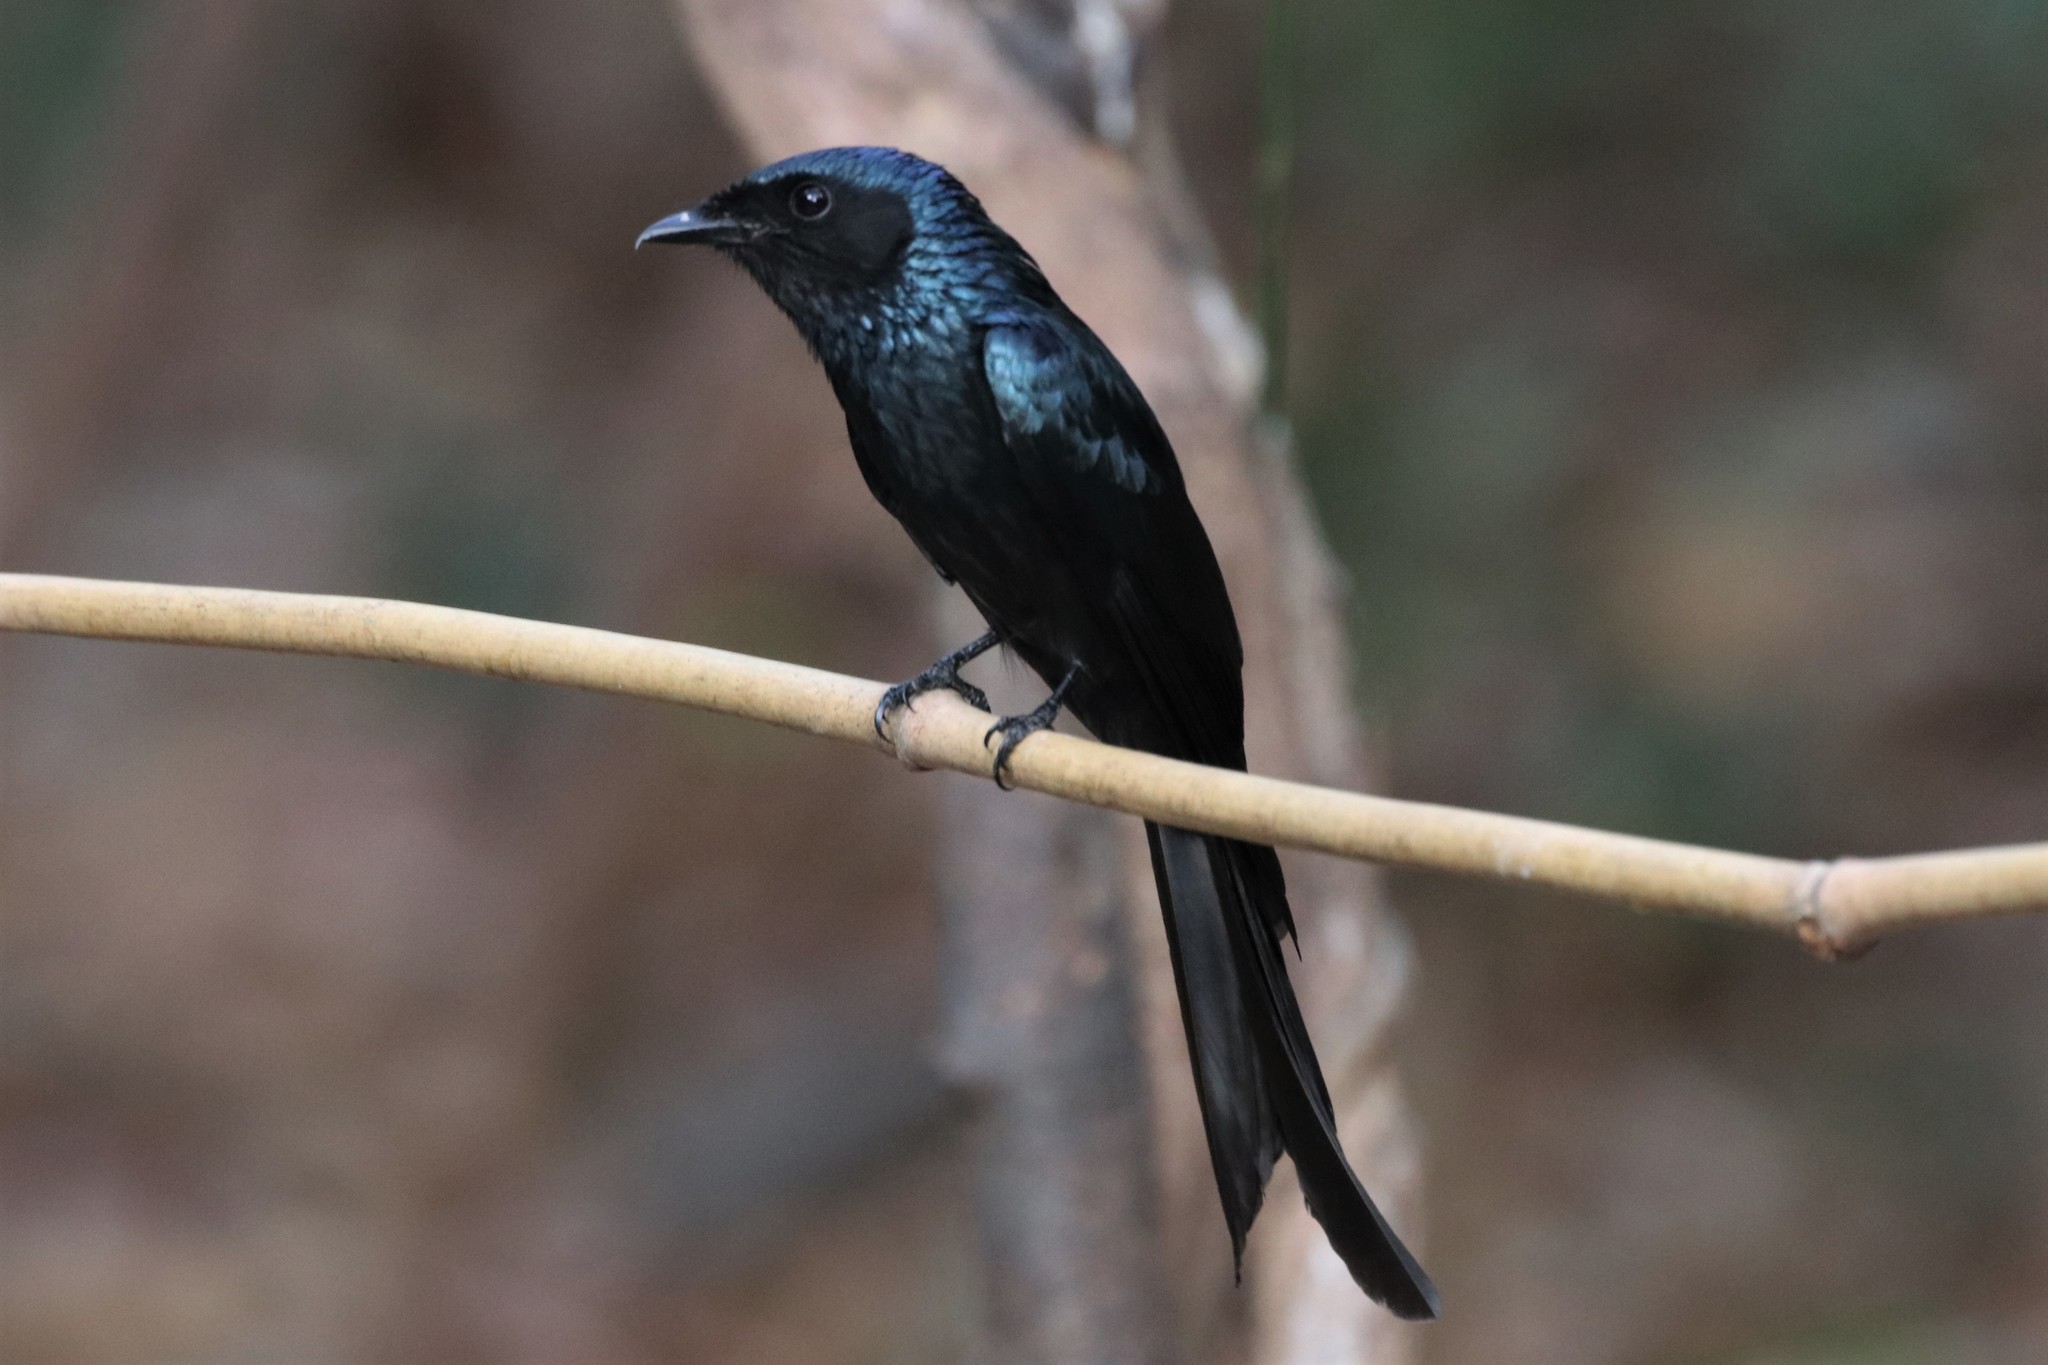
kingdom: Animalia
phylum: Chordata
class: Aves
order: Passeriformes
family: Dicruridae
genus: Dicrurus
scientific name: Dicrurus aeneus
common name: Bronzed drongo
